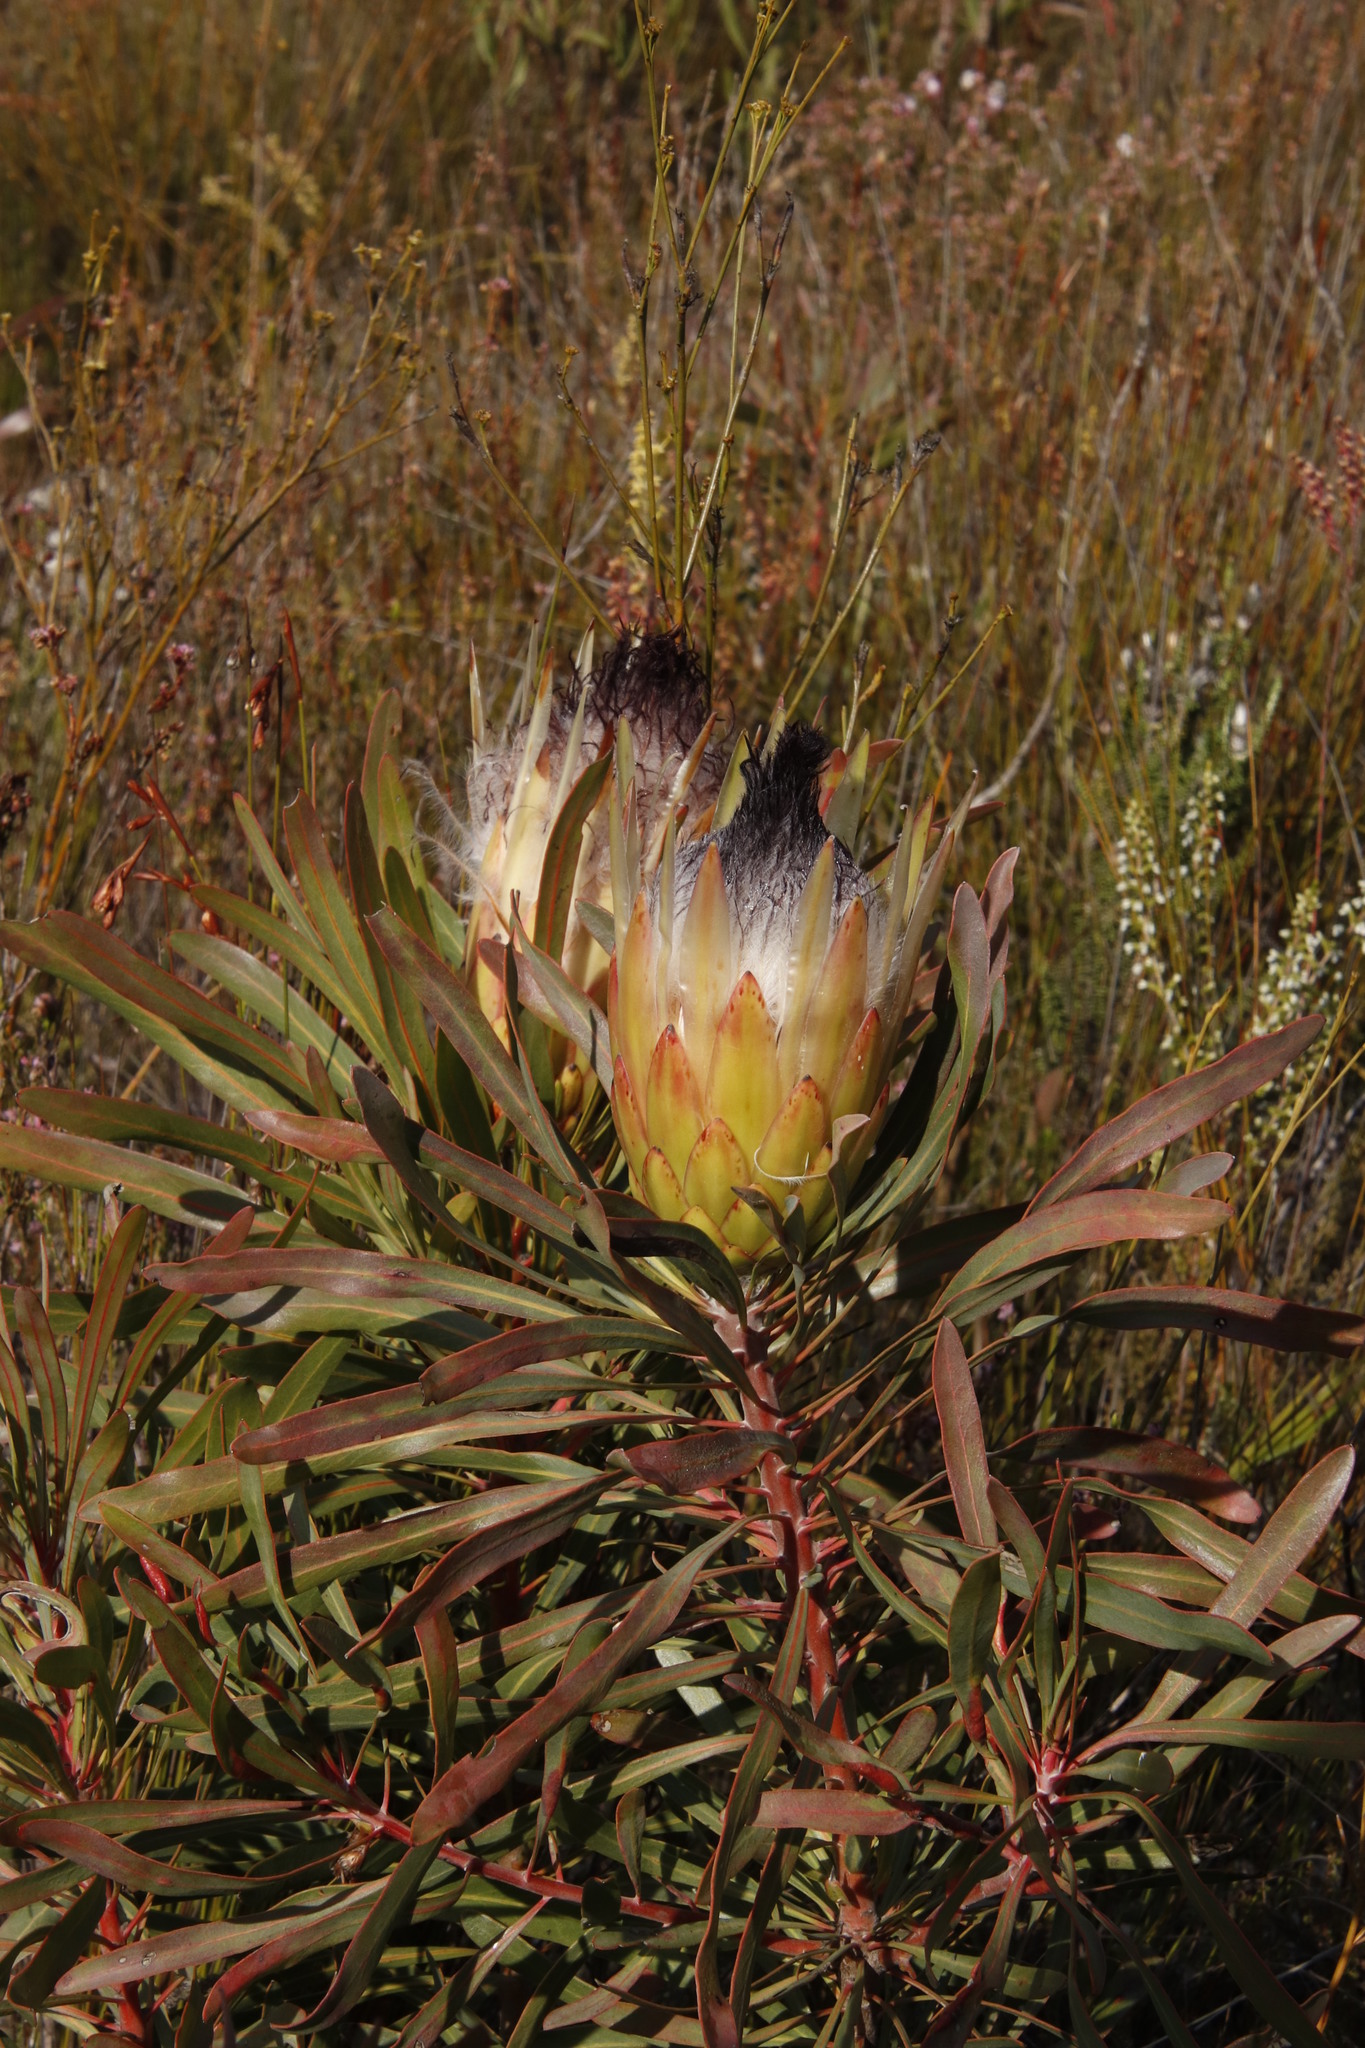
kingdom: Plantae
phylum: Tracheophyta
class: Magnoliopsida
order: Proteales
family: Proteaceae
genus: Protea
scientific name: Protea longifolia
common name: Long-leaf sugarbush
